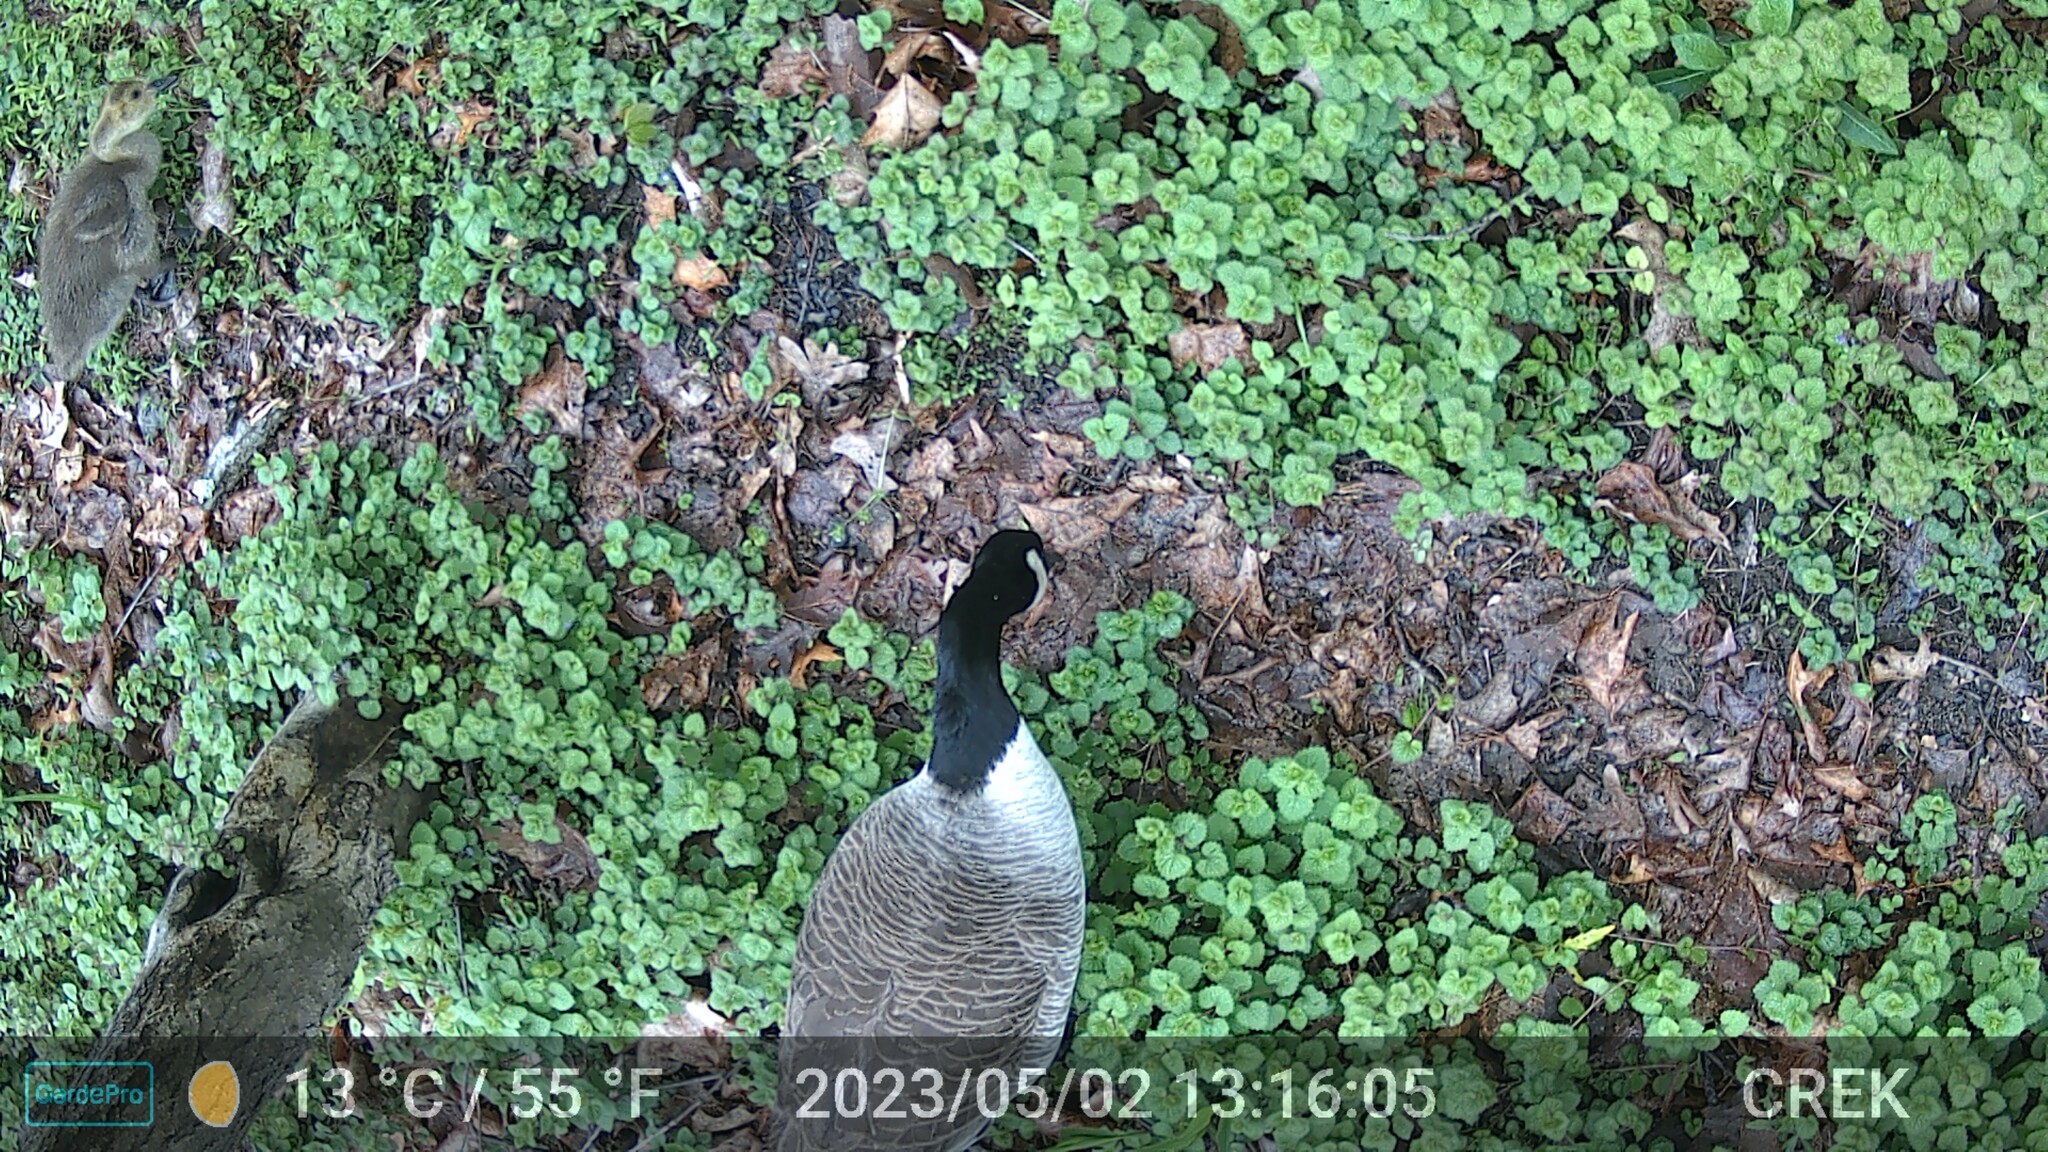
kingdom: Animalia
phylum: Chordata
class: Aves
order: Anseriformes
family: Anatidae
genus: Branta
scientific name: Branta canadensis
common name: Canada goose
